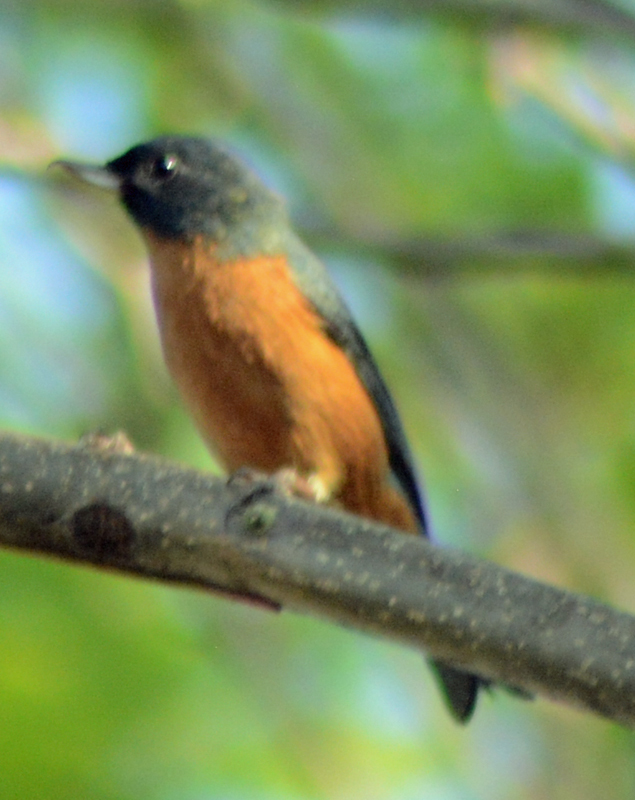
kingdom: Animalia
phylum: Chordata
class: Aves
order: Passeriformes
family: Thraupidae
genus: Diglossa
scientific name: Diglossa baritula
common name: Cinnamon-bellied flowerpiercer
